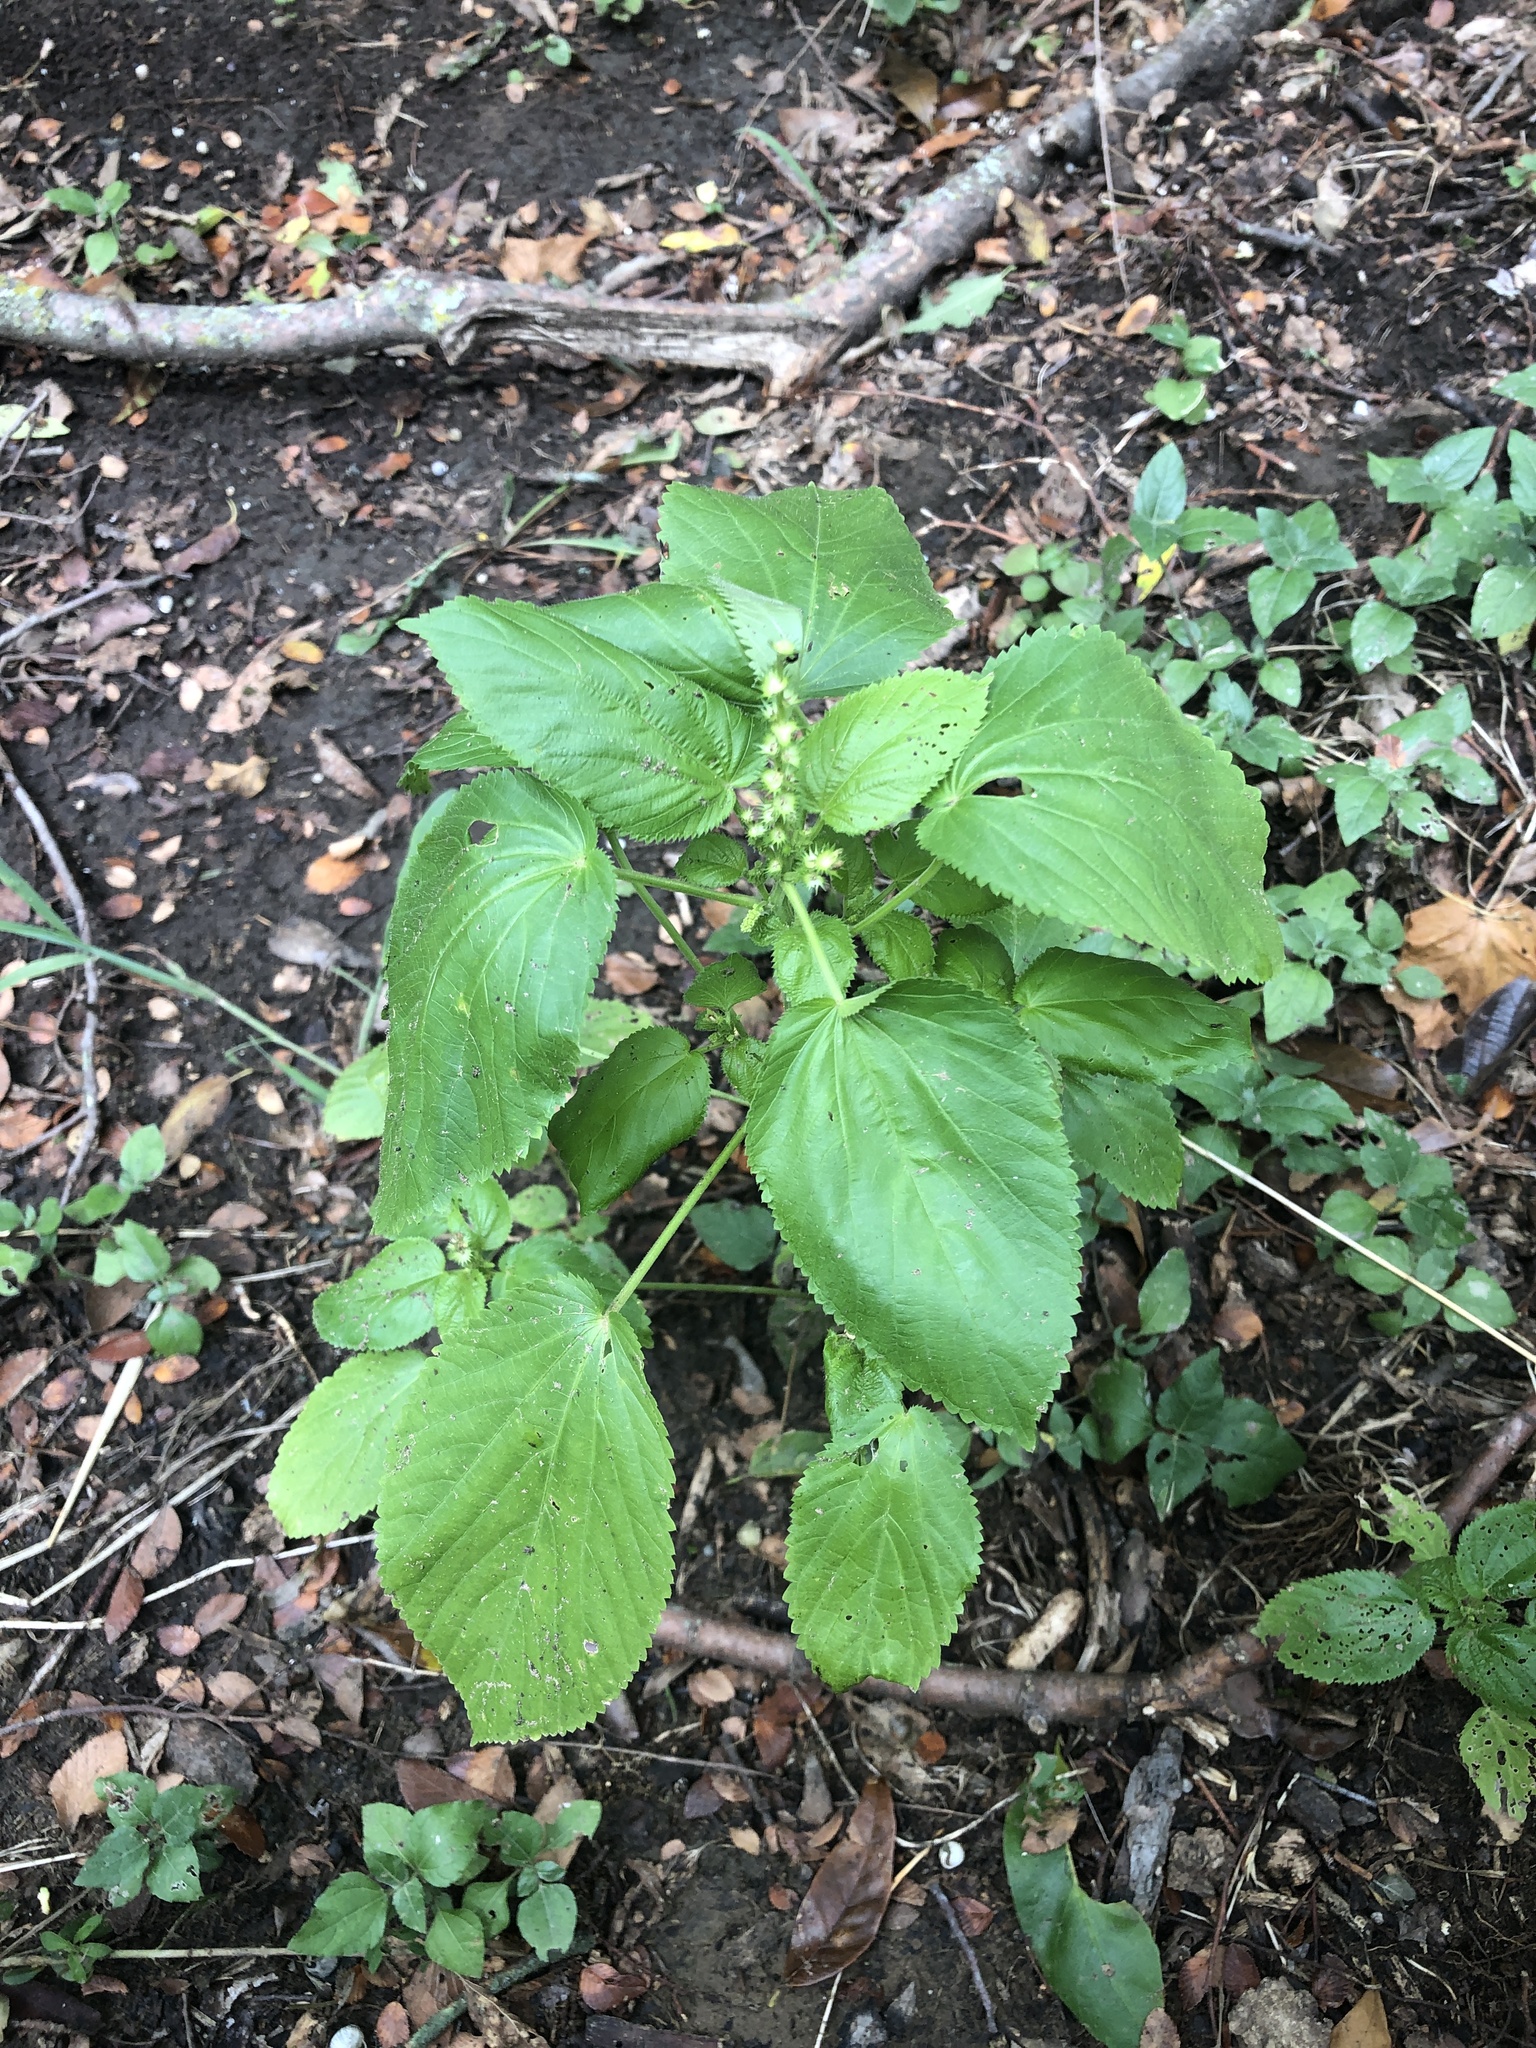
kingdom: Plantae
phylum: Tracheophyta
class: Magnoliopsida
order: Malpighiales
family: Euphorbiaceae
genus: Acalypha
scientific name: Acalypha ostryifolia
